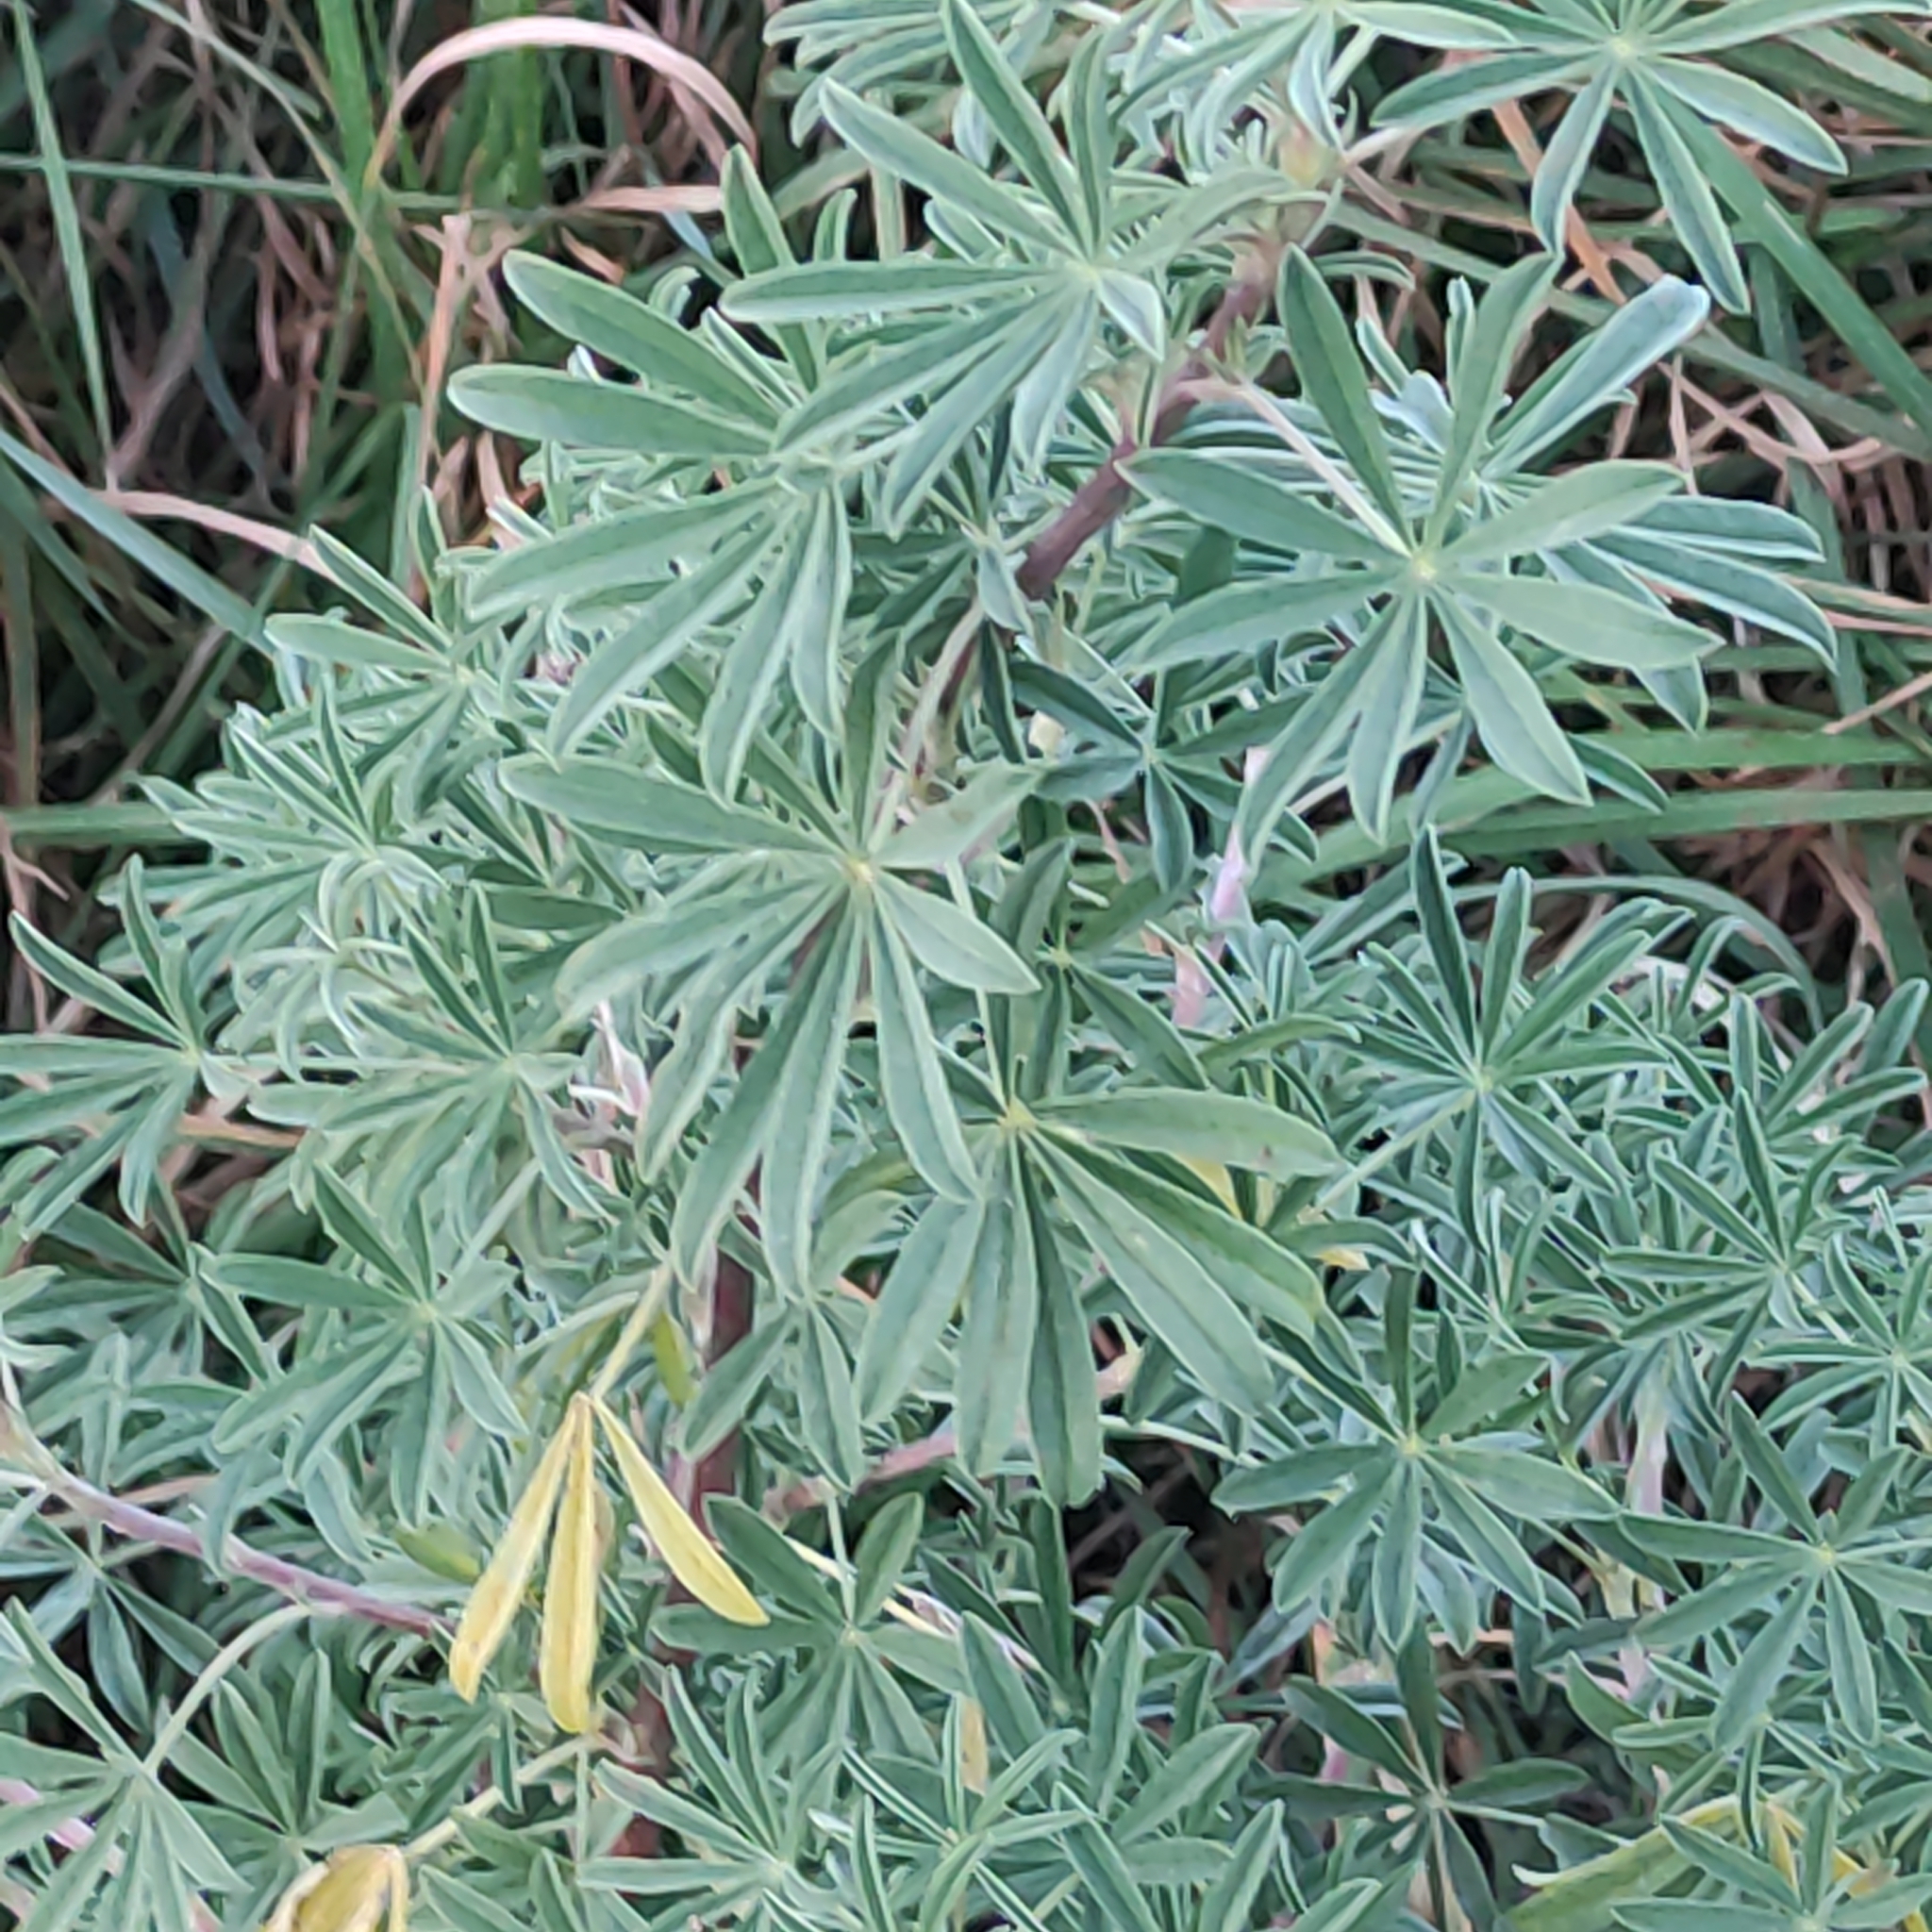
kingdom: Plantae
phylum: Tracheophyta
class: Magnoliopsida
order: Fabales
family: Fabaceae
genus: Lupinus
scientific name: Lupinus arboreus
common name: Yellow bush lupine
